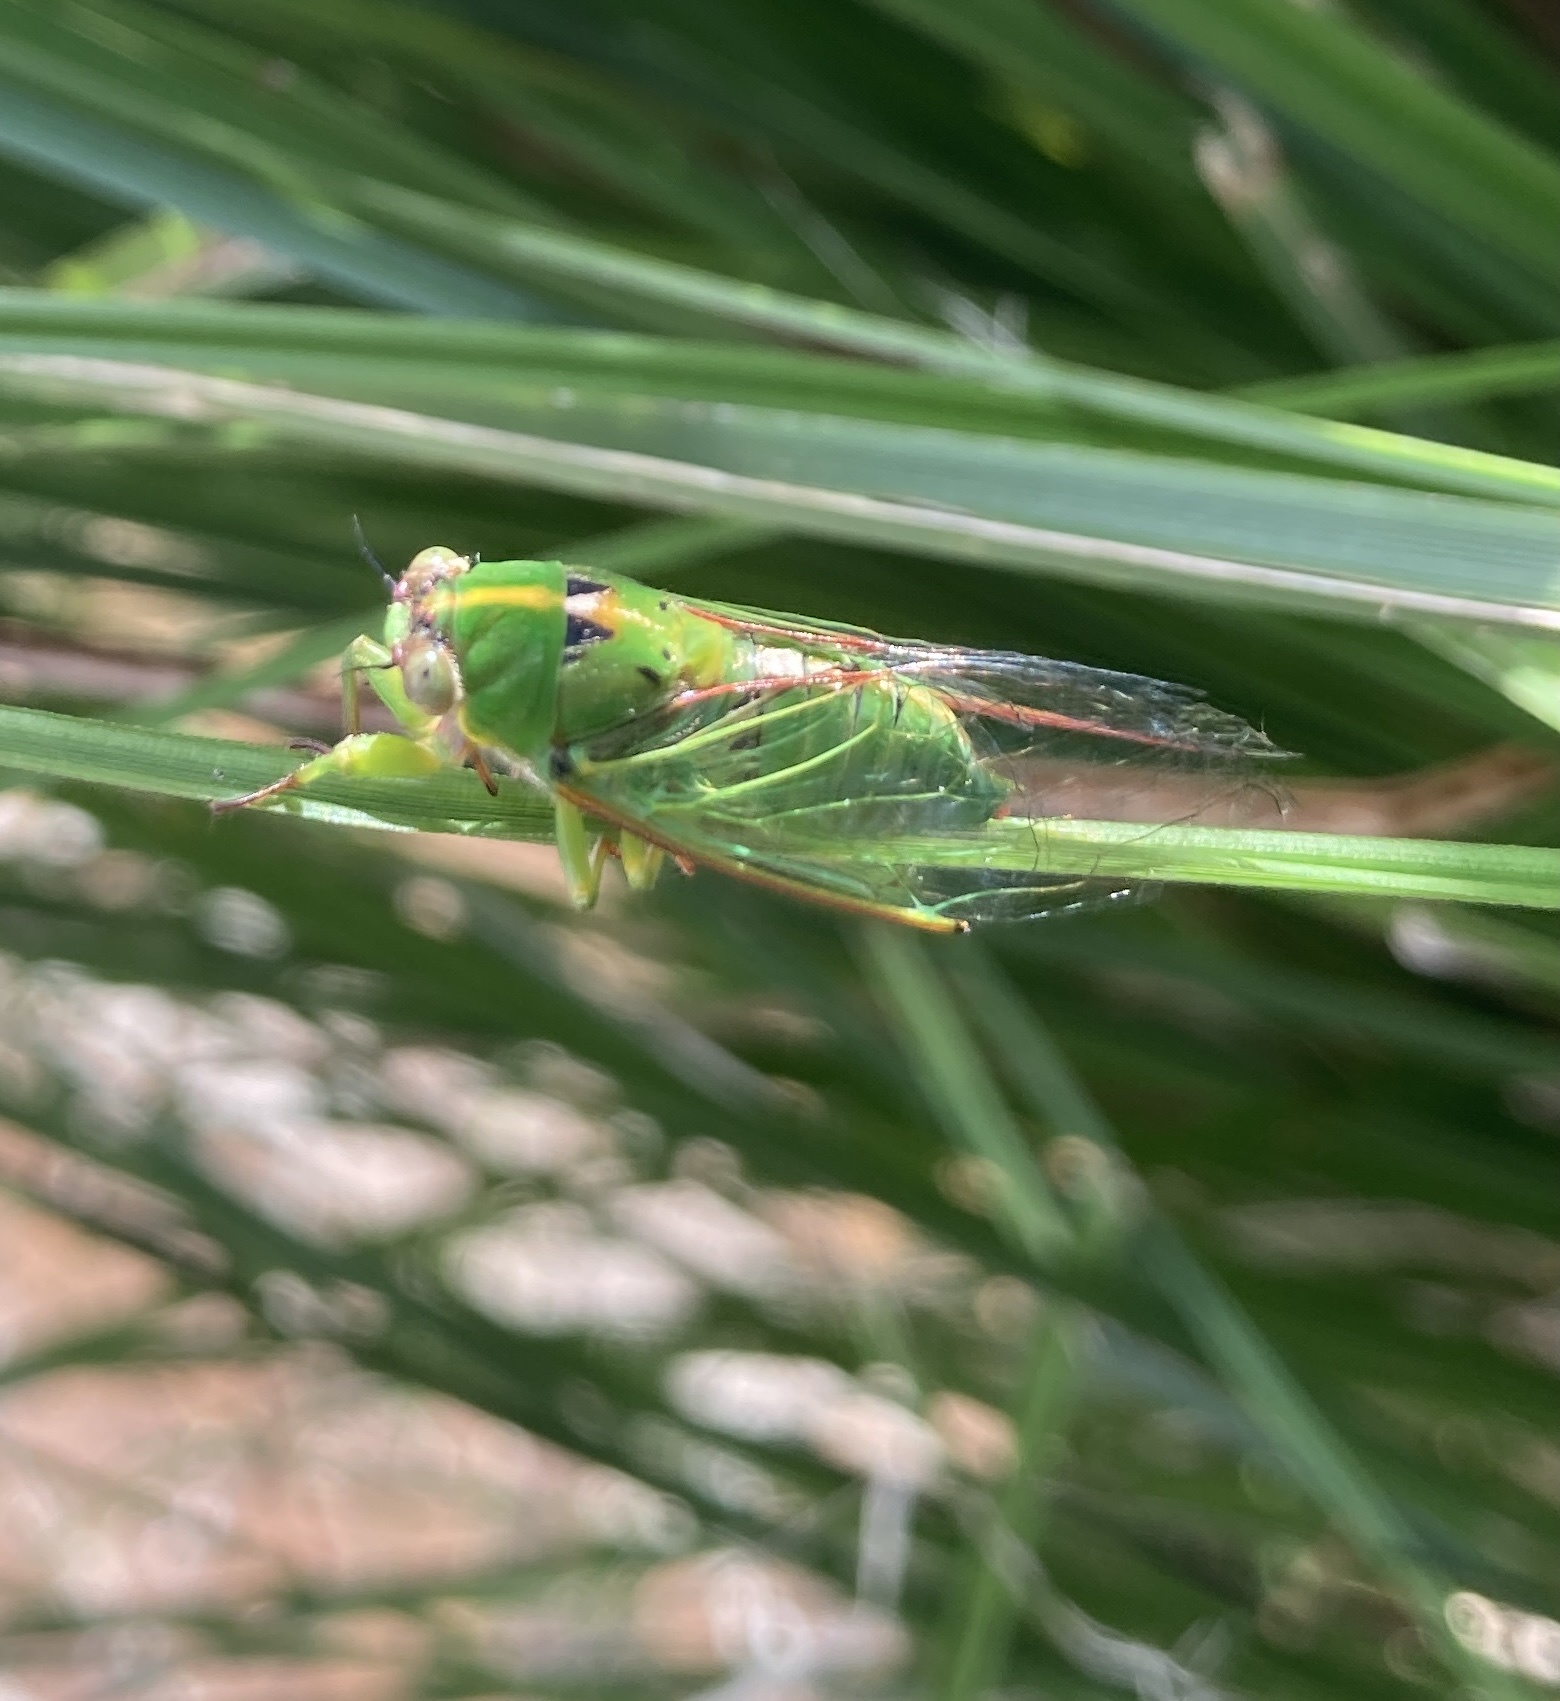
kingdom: Animalia
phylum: Arthropoda
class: Insecta
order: Hemiptera
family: Cicadidae
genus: Kikihia
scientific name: Kikihia cutora
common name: Northern snoring cicada
